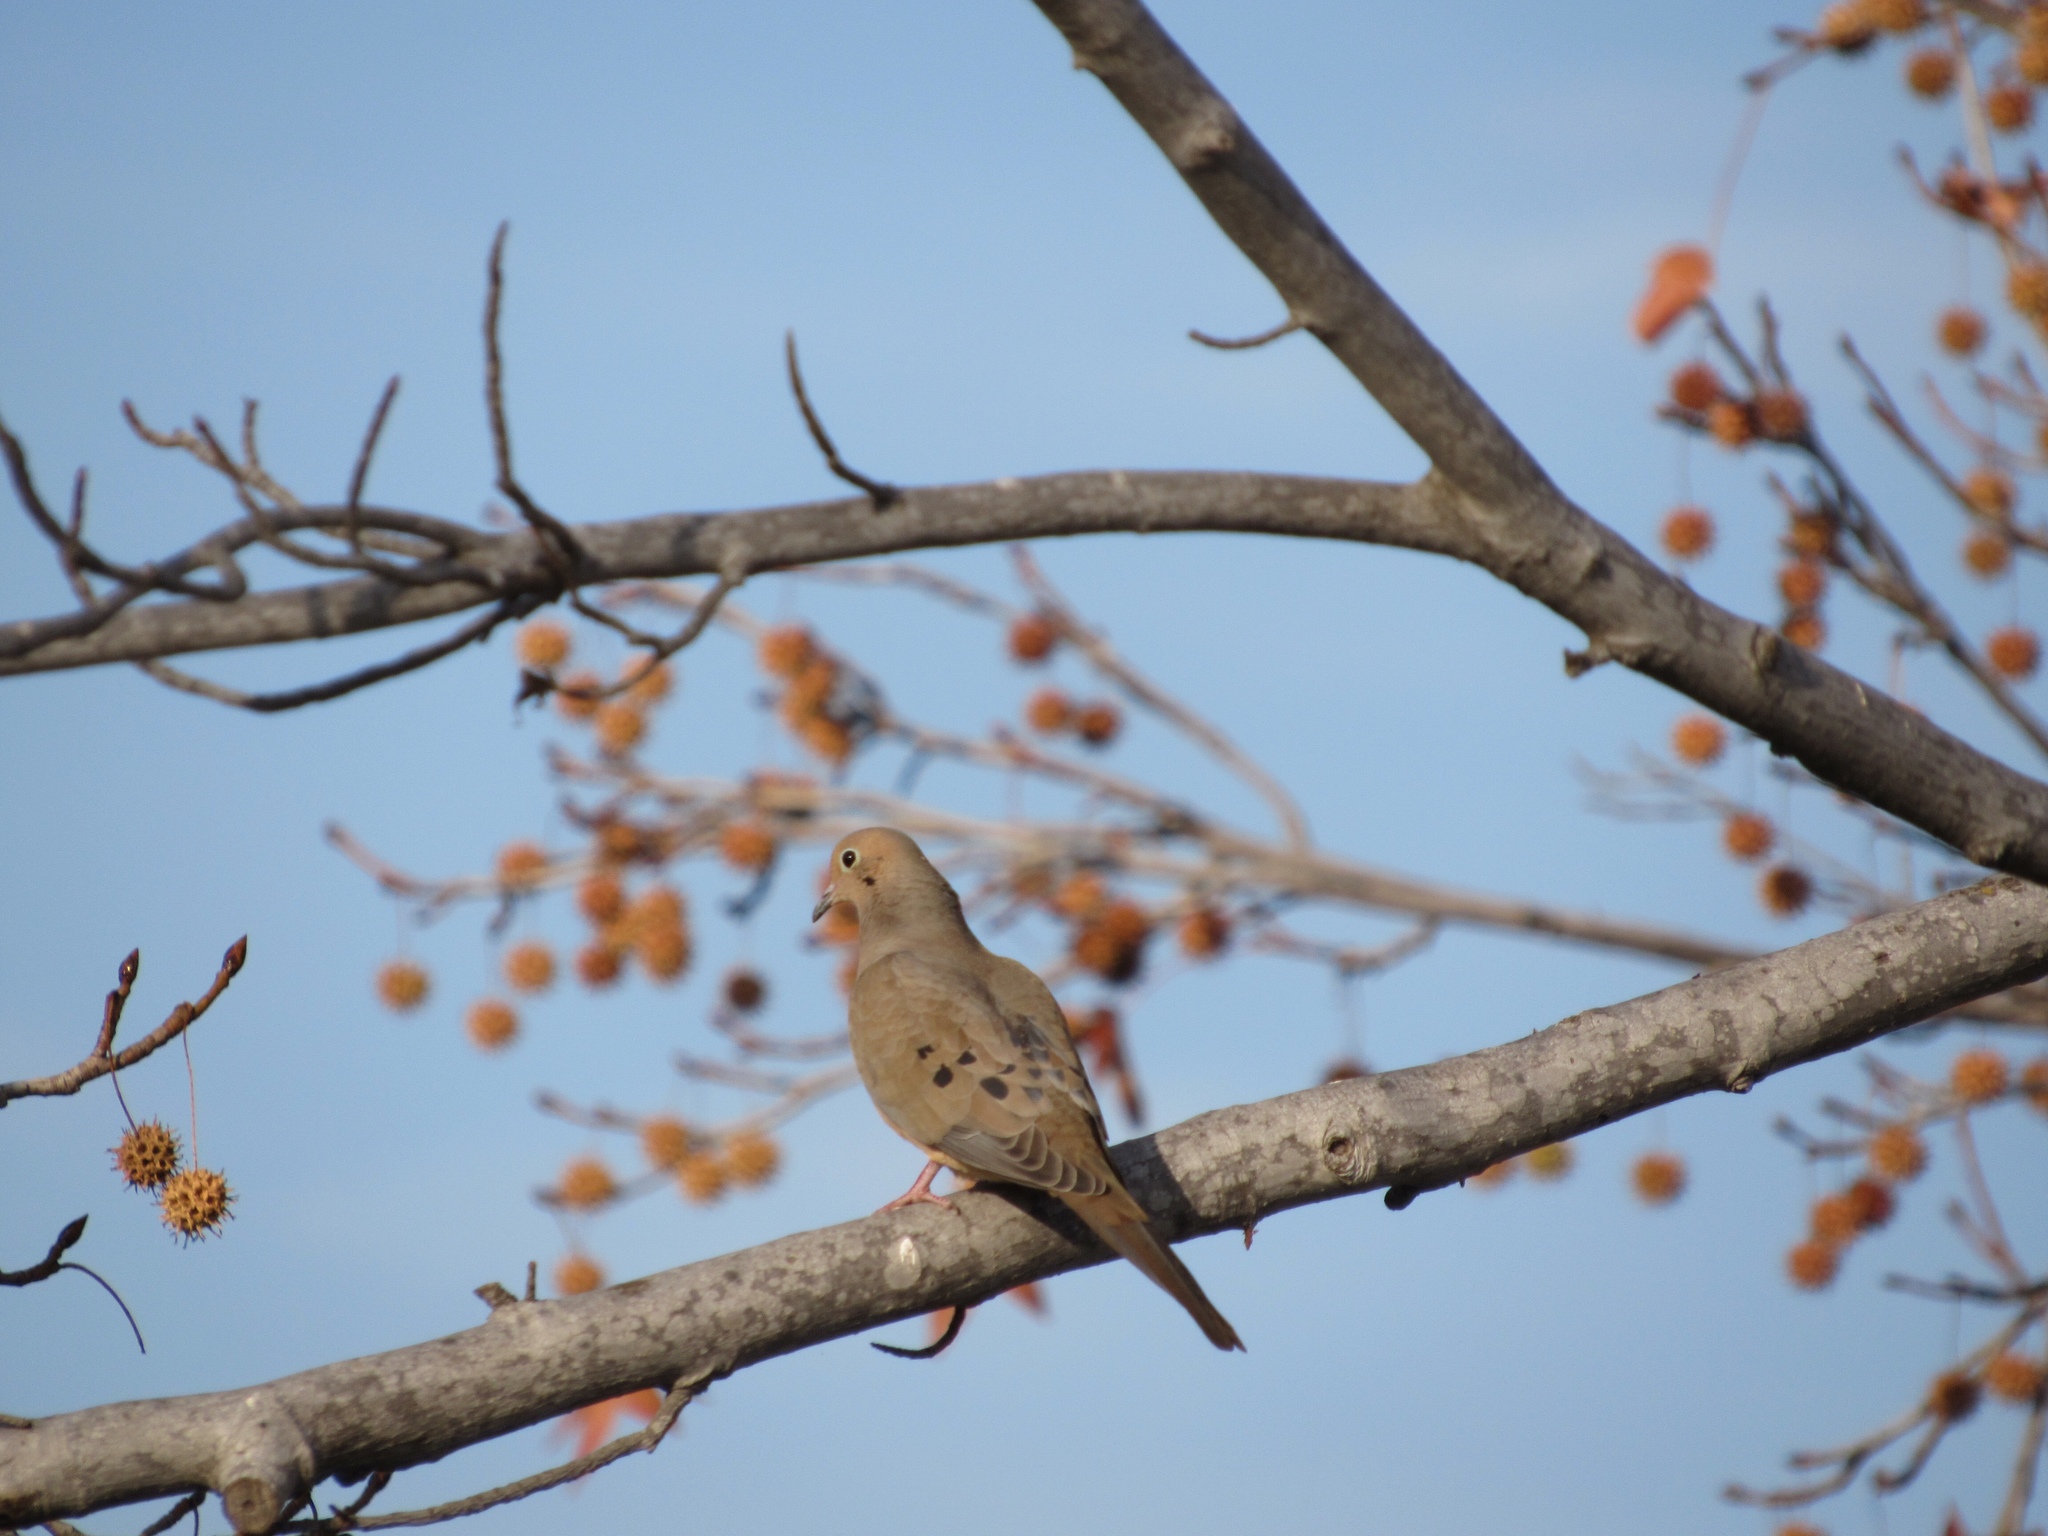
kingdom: Animalia
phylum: Chordata
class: Aves
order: Columbiformes
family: Columbidae
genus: Zenaida
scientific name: Zenaida macroura
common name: Mourning dove
